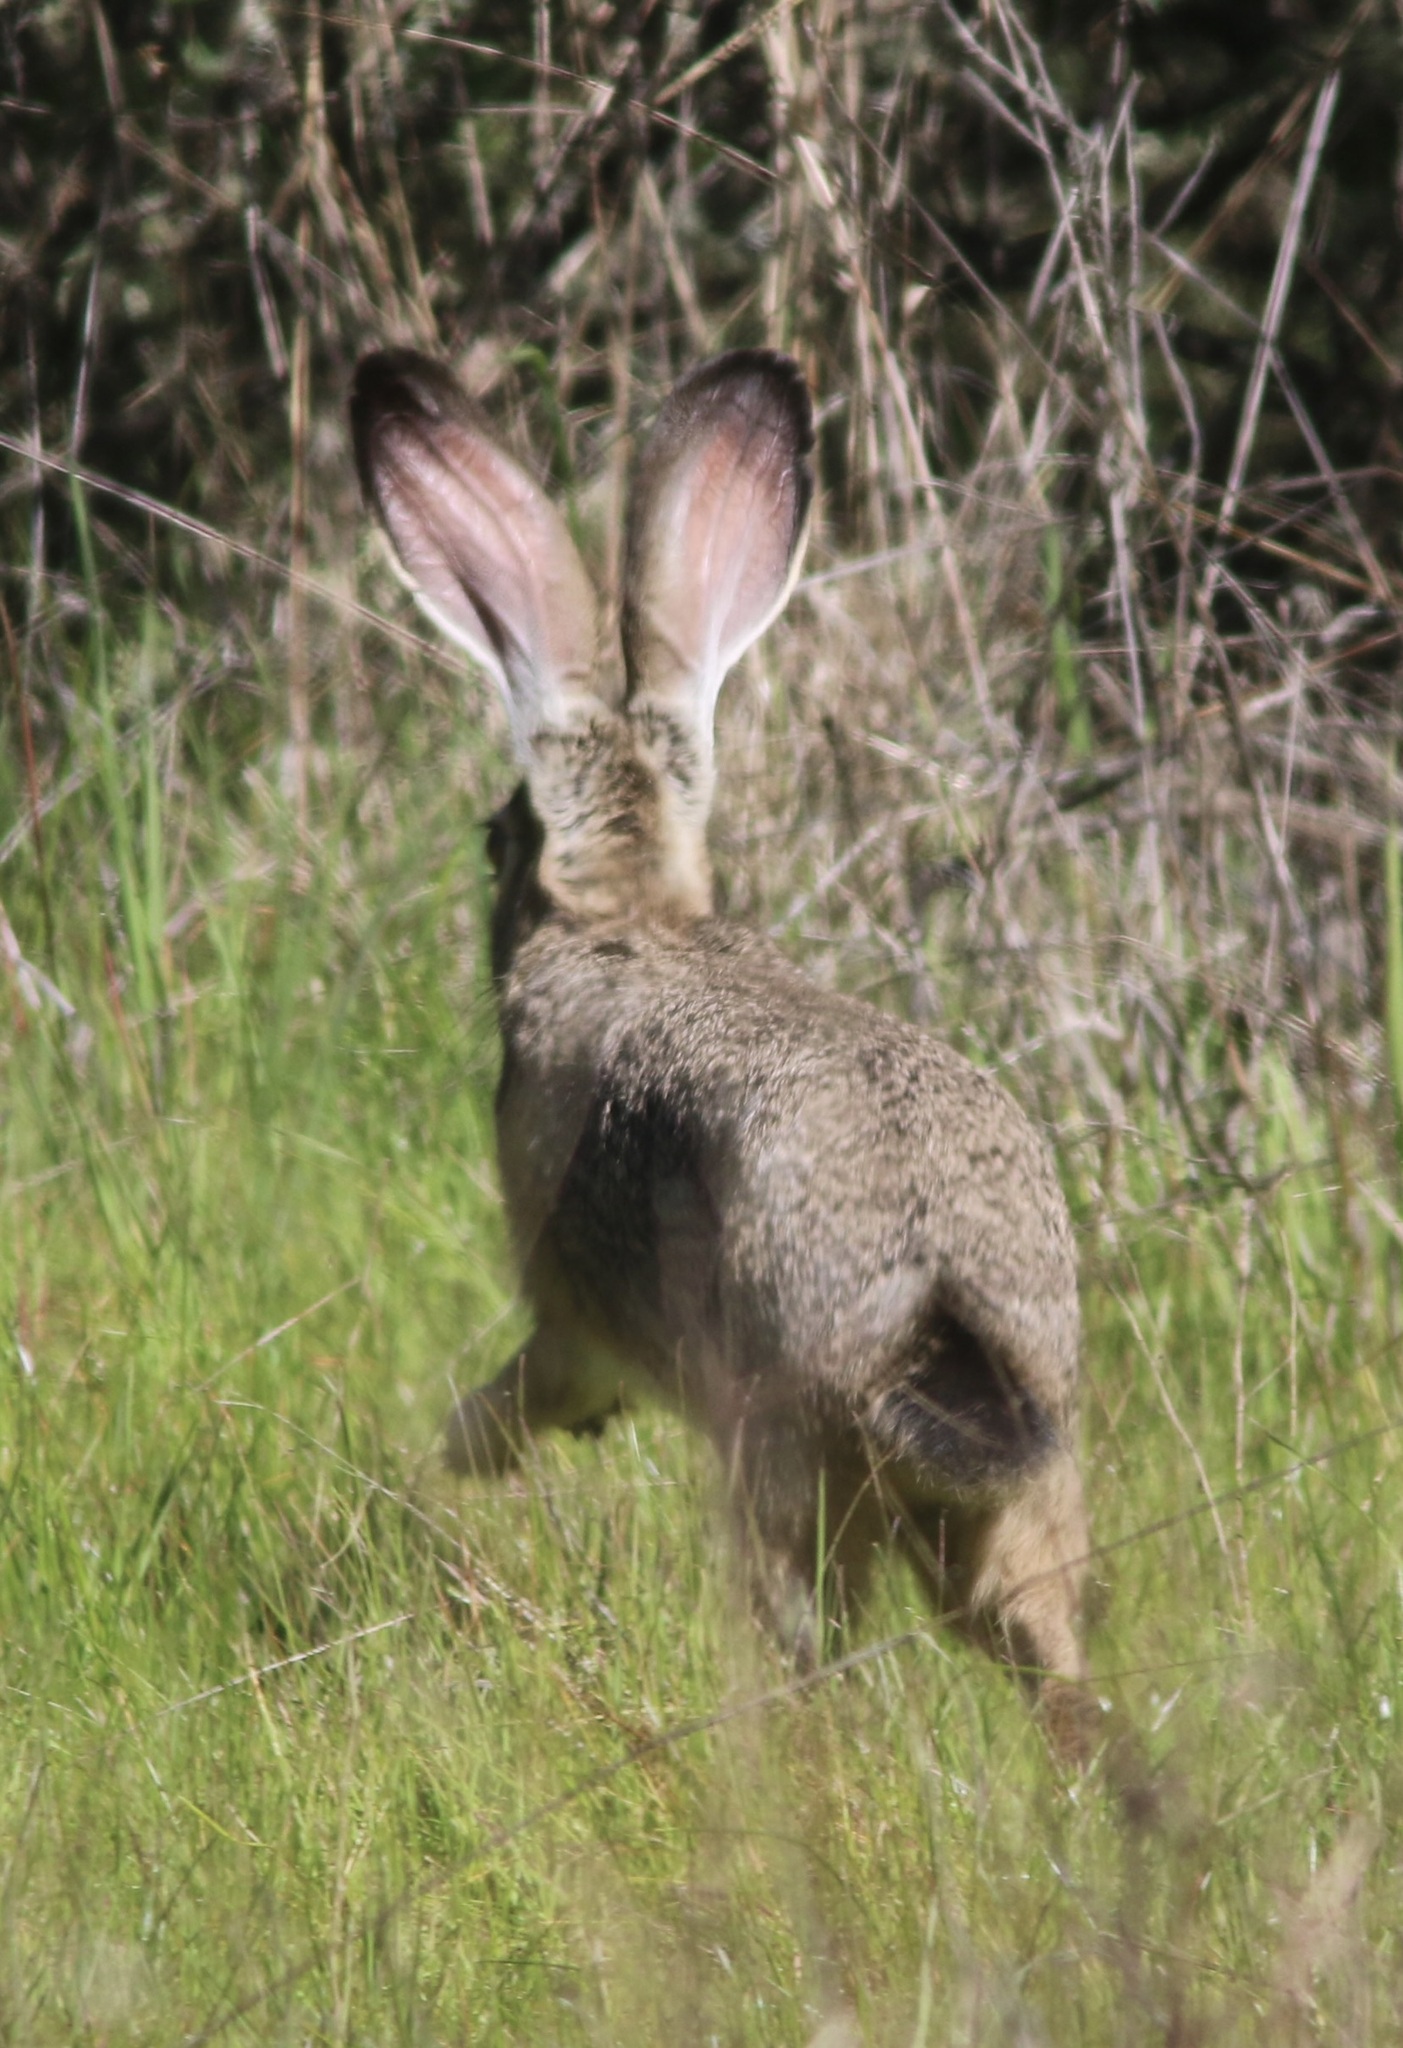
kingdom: Animalia
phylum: Chordata
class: Mammalia
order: Lagomorpha
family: Leporidae
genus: Lepus
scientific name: Lepus californicus
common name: Black-tailed jackrabbit
